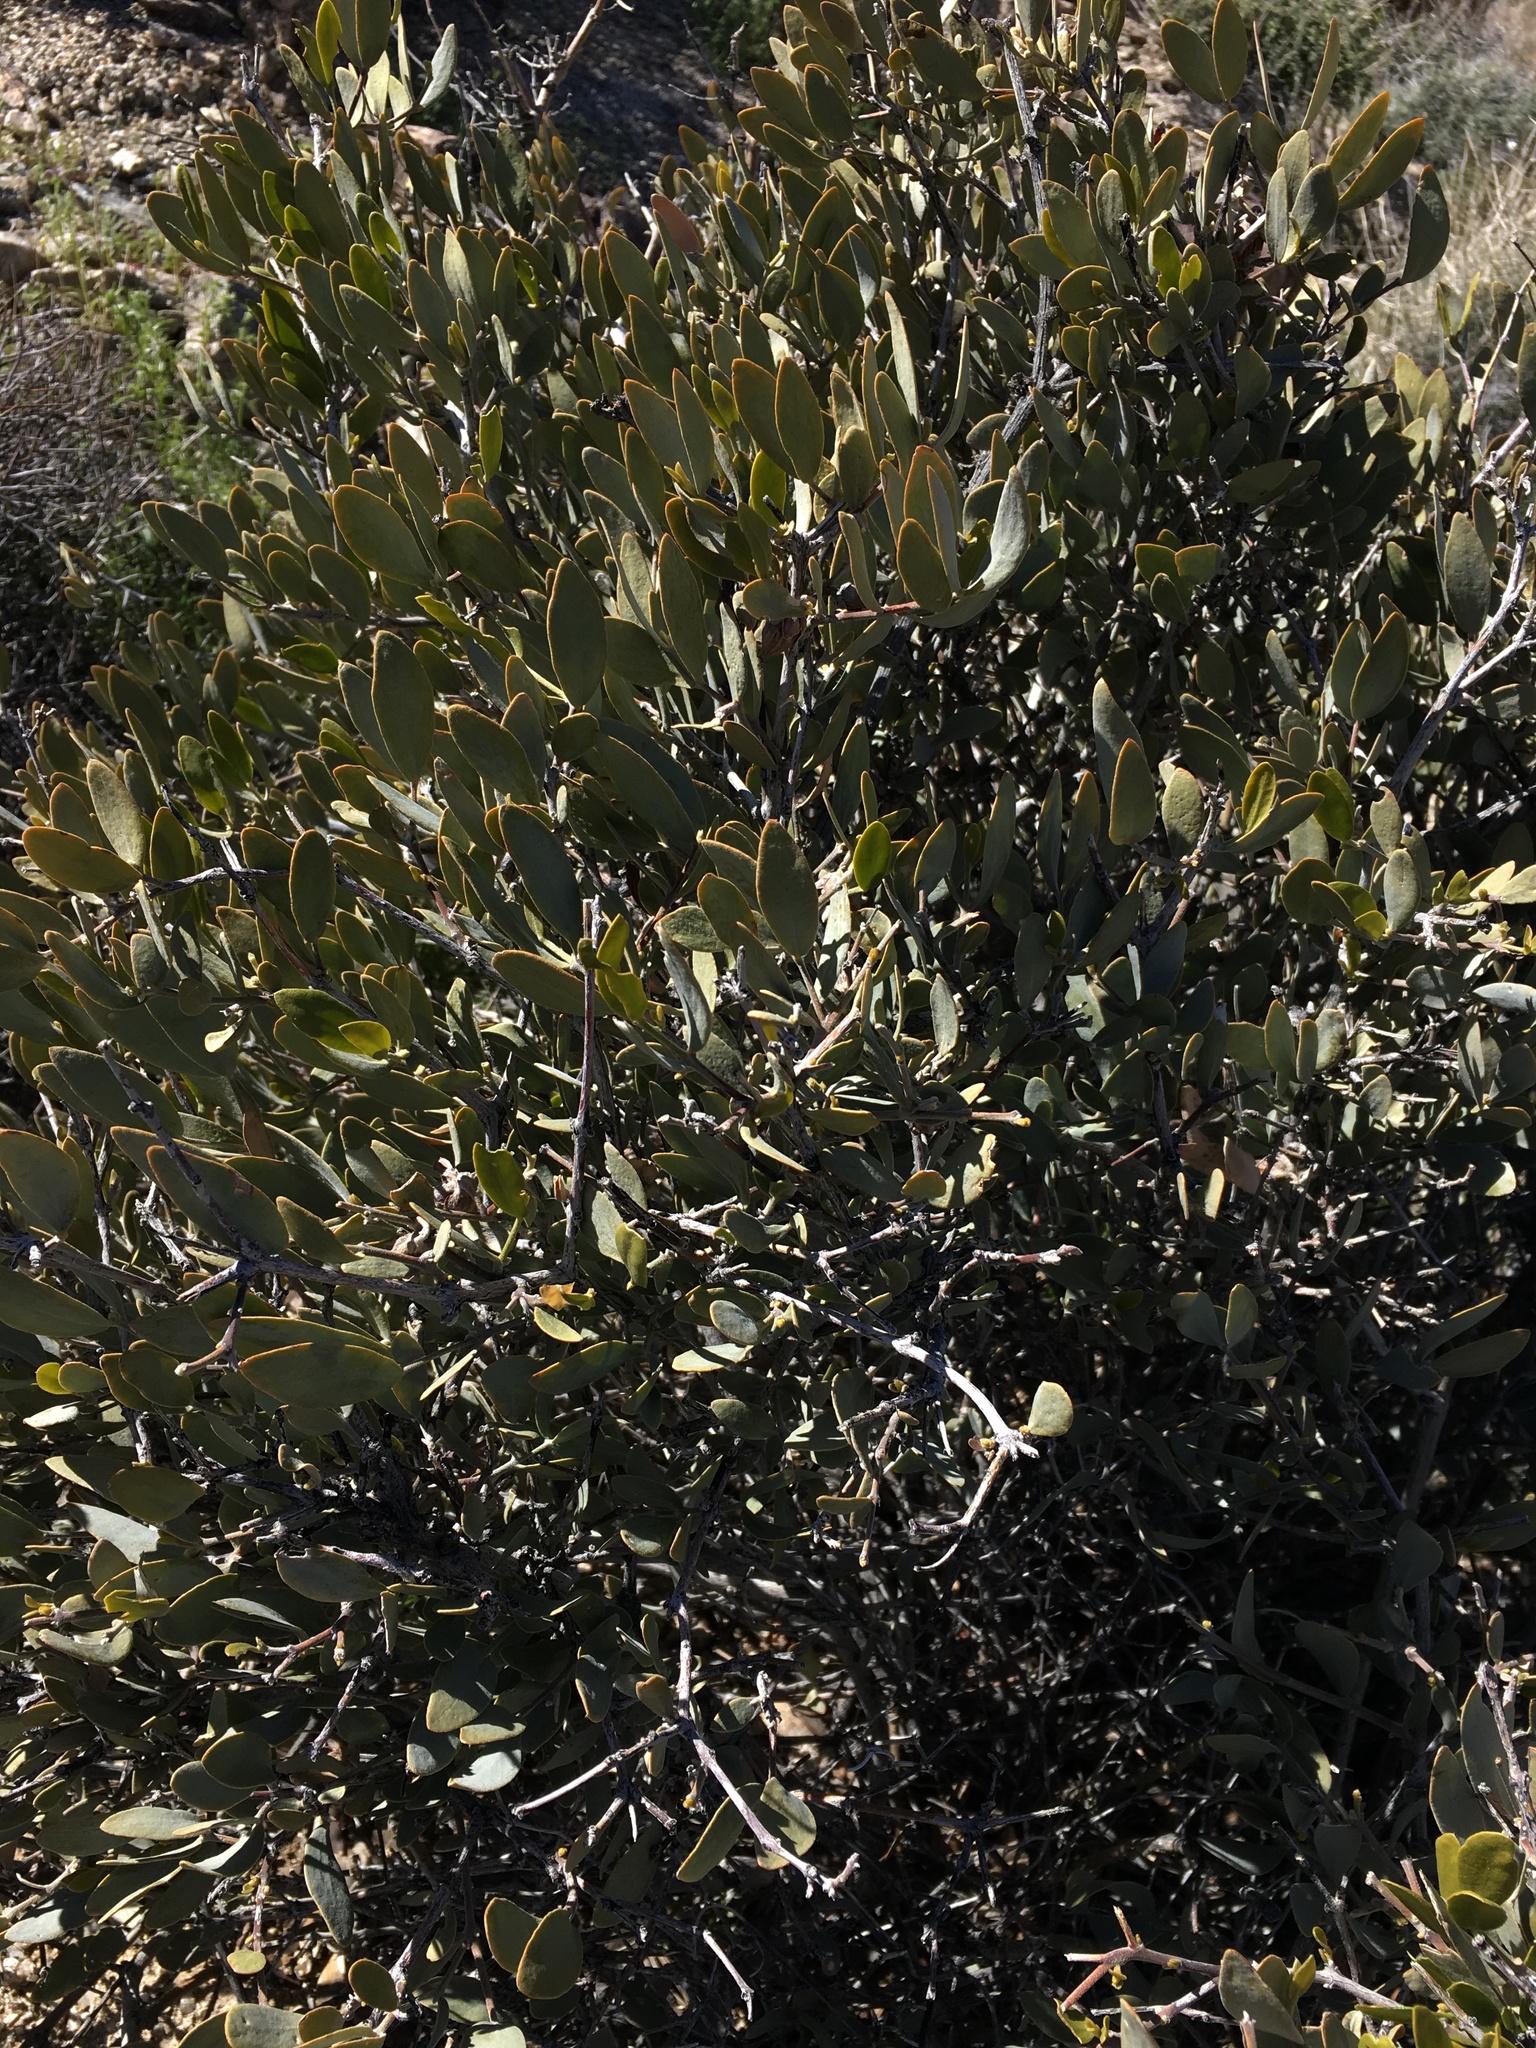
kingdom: Plantae
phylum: Tracheophyta
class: Magnoliopsida
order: Caryophyllales
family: Simmondsiaceae
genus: Simmondsia
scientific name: Simmondsia chinensis
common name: Jojoba
